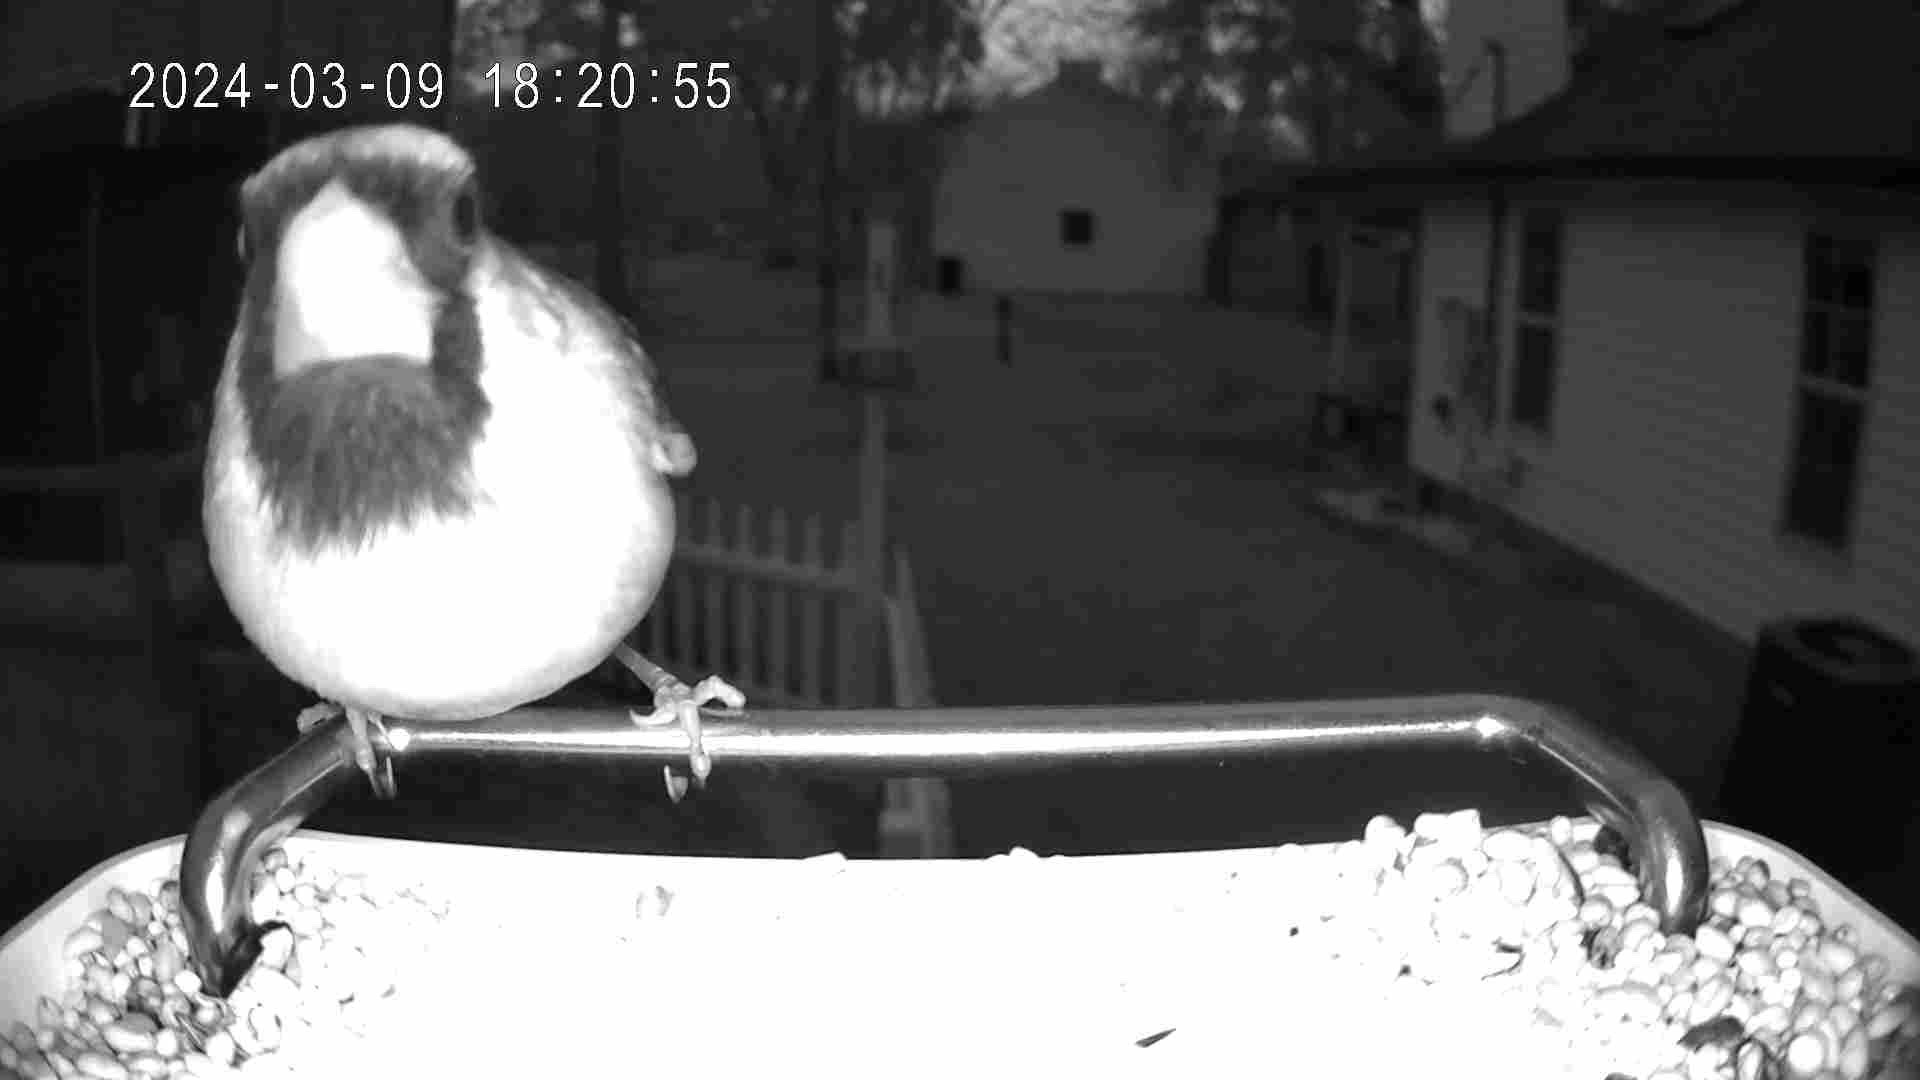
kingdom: Animalia
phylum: Chordata
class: Aves
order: Passeriformes
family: Cardinalidae
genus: Cardinalis
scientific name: Cardinalis cardinalis
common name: Northern cardinal
